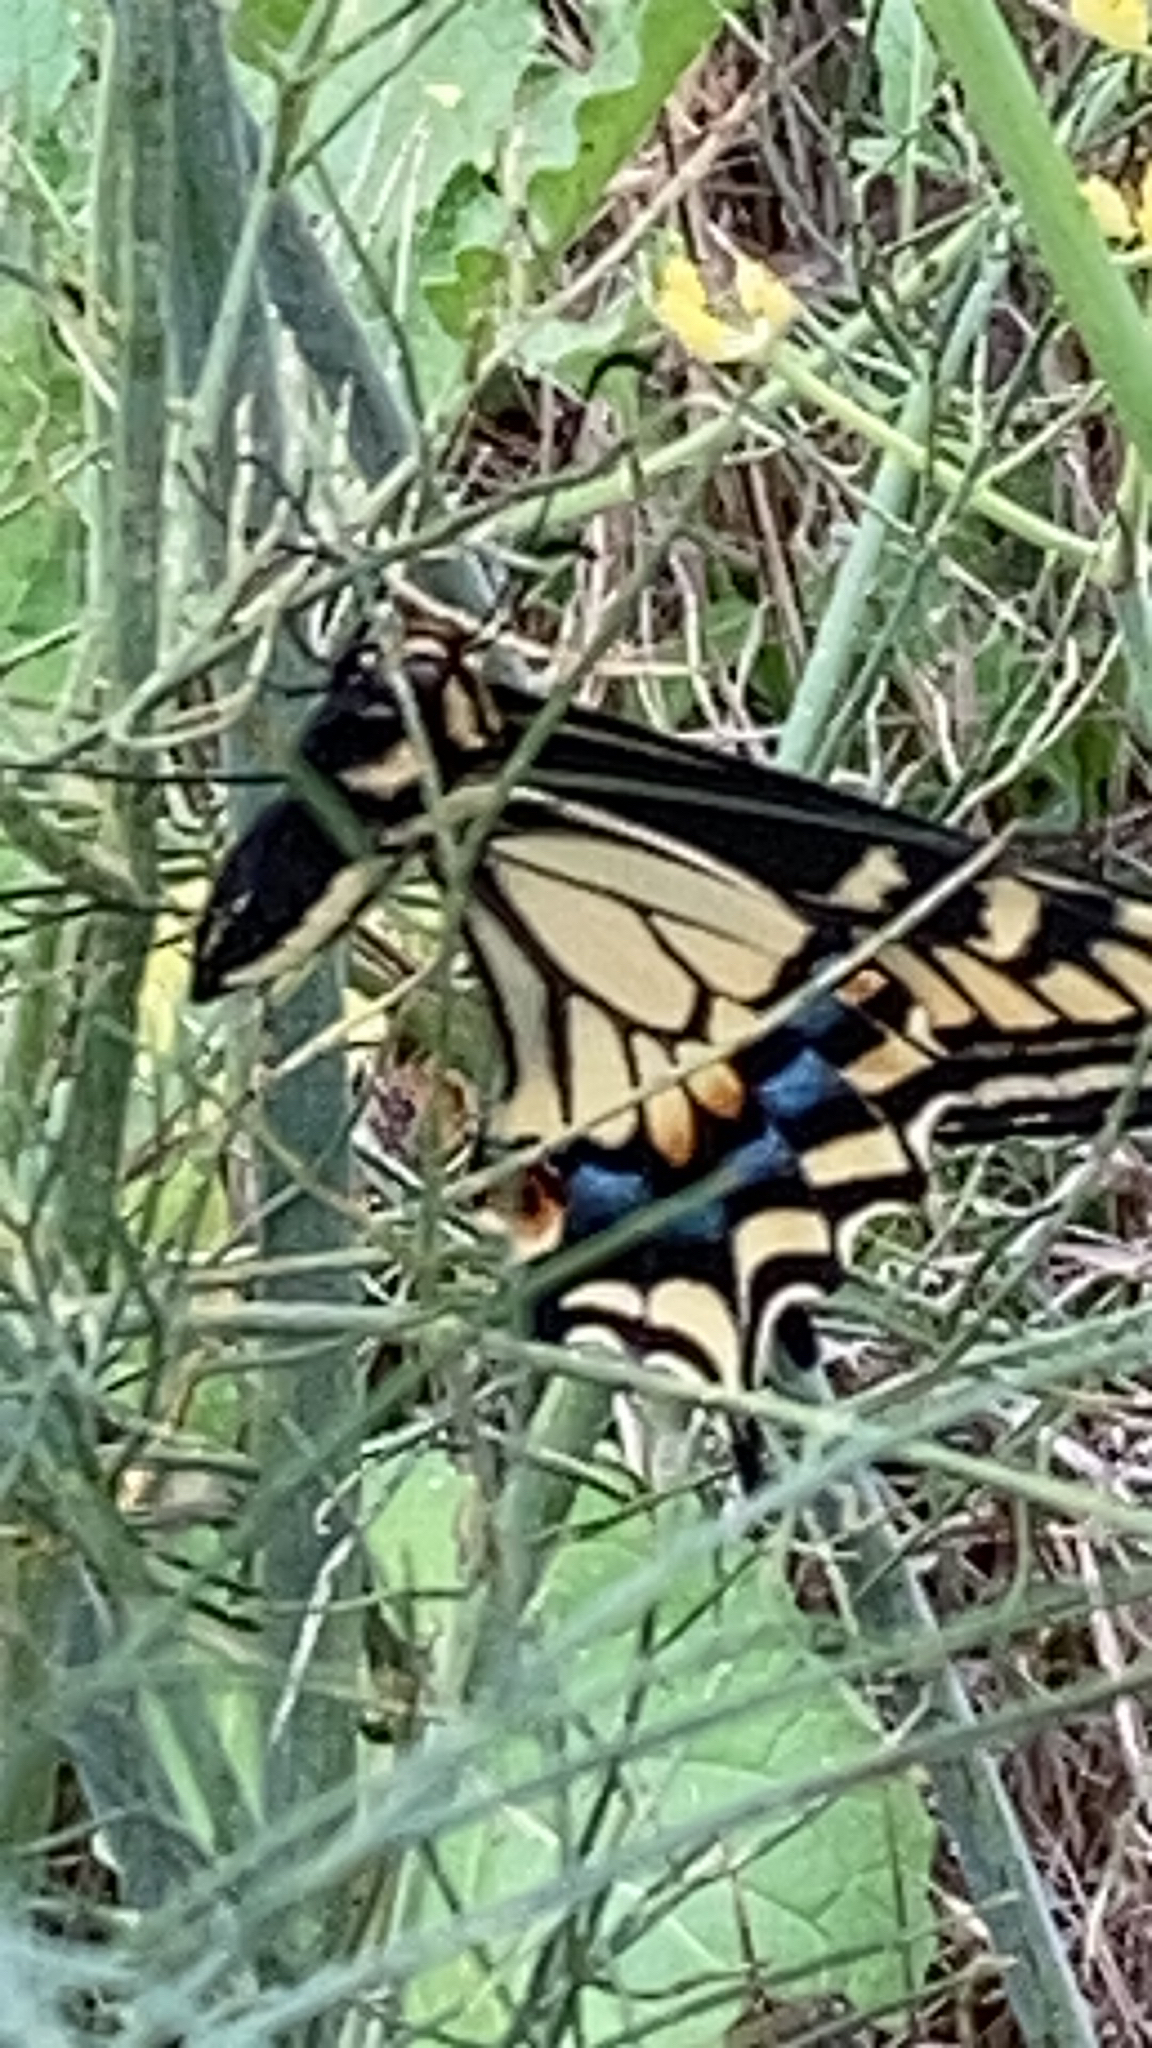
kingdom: Animalia
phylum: Arthropoda
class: Insecta
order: Lepidoptera
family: Papilionidae
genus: Papilio
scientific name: Papilio zelicaon
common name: Anise swallowtail
